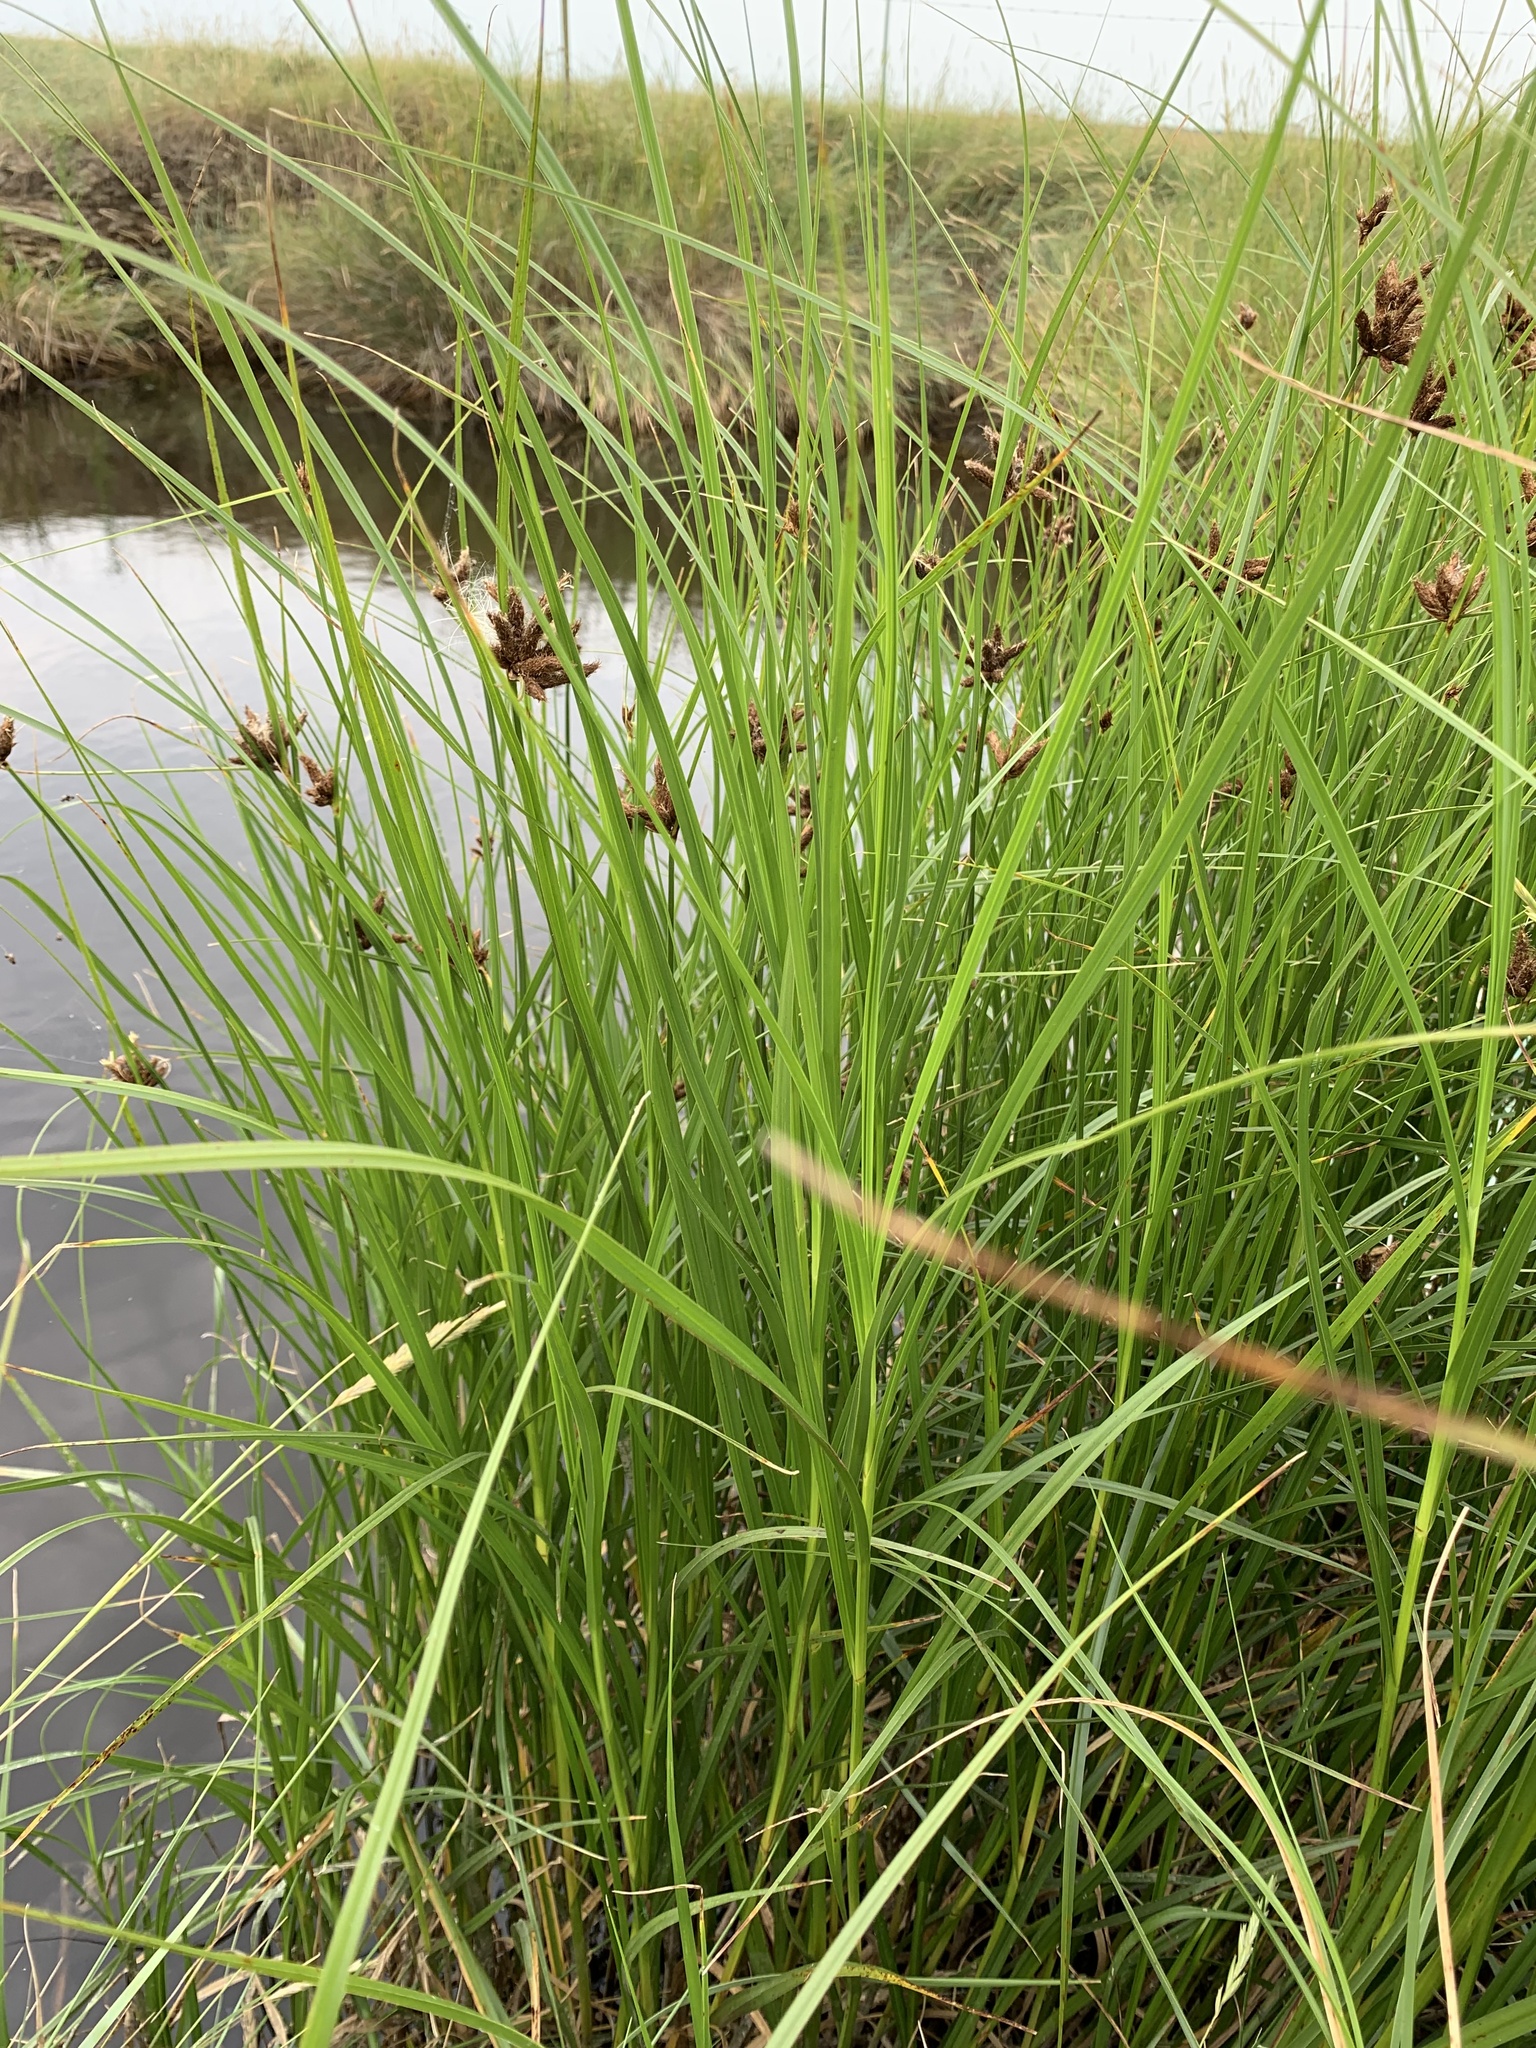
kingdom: Plantae
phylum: Tracheophyta
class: Liliopsida
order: Poales
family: Cyperaceae
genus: Bolboschoenus
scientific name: Bolboschoenus maritimus
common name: Sea club-rush
